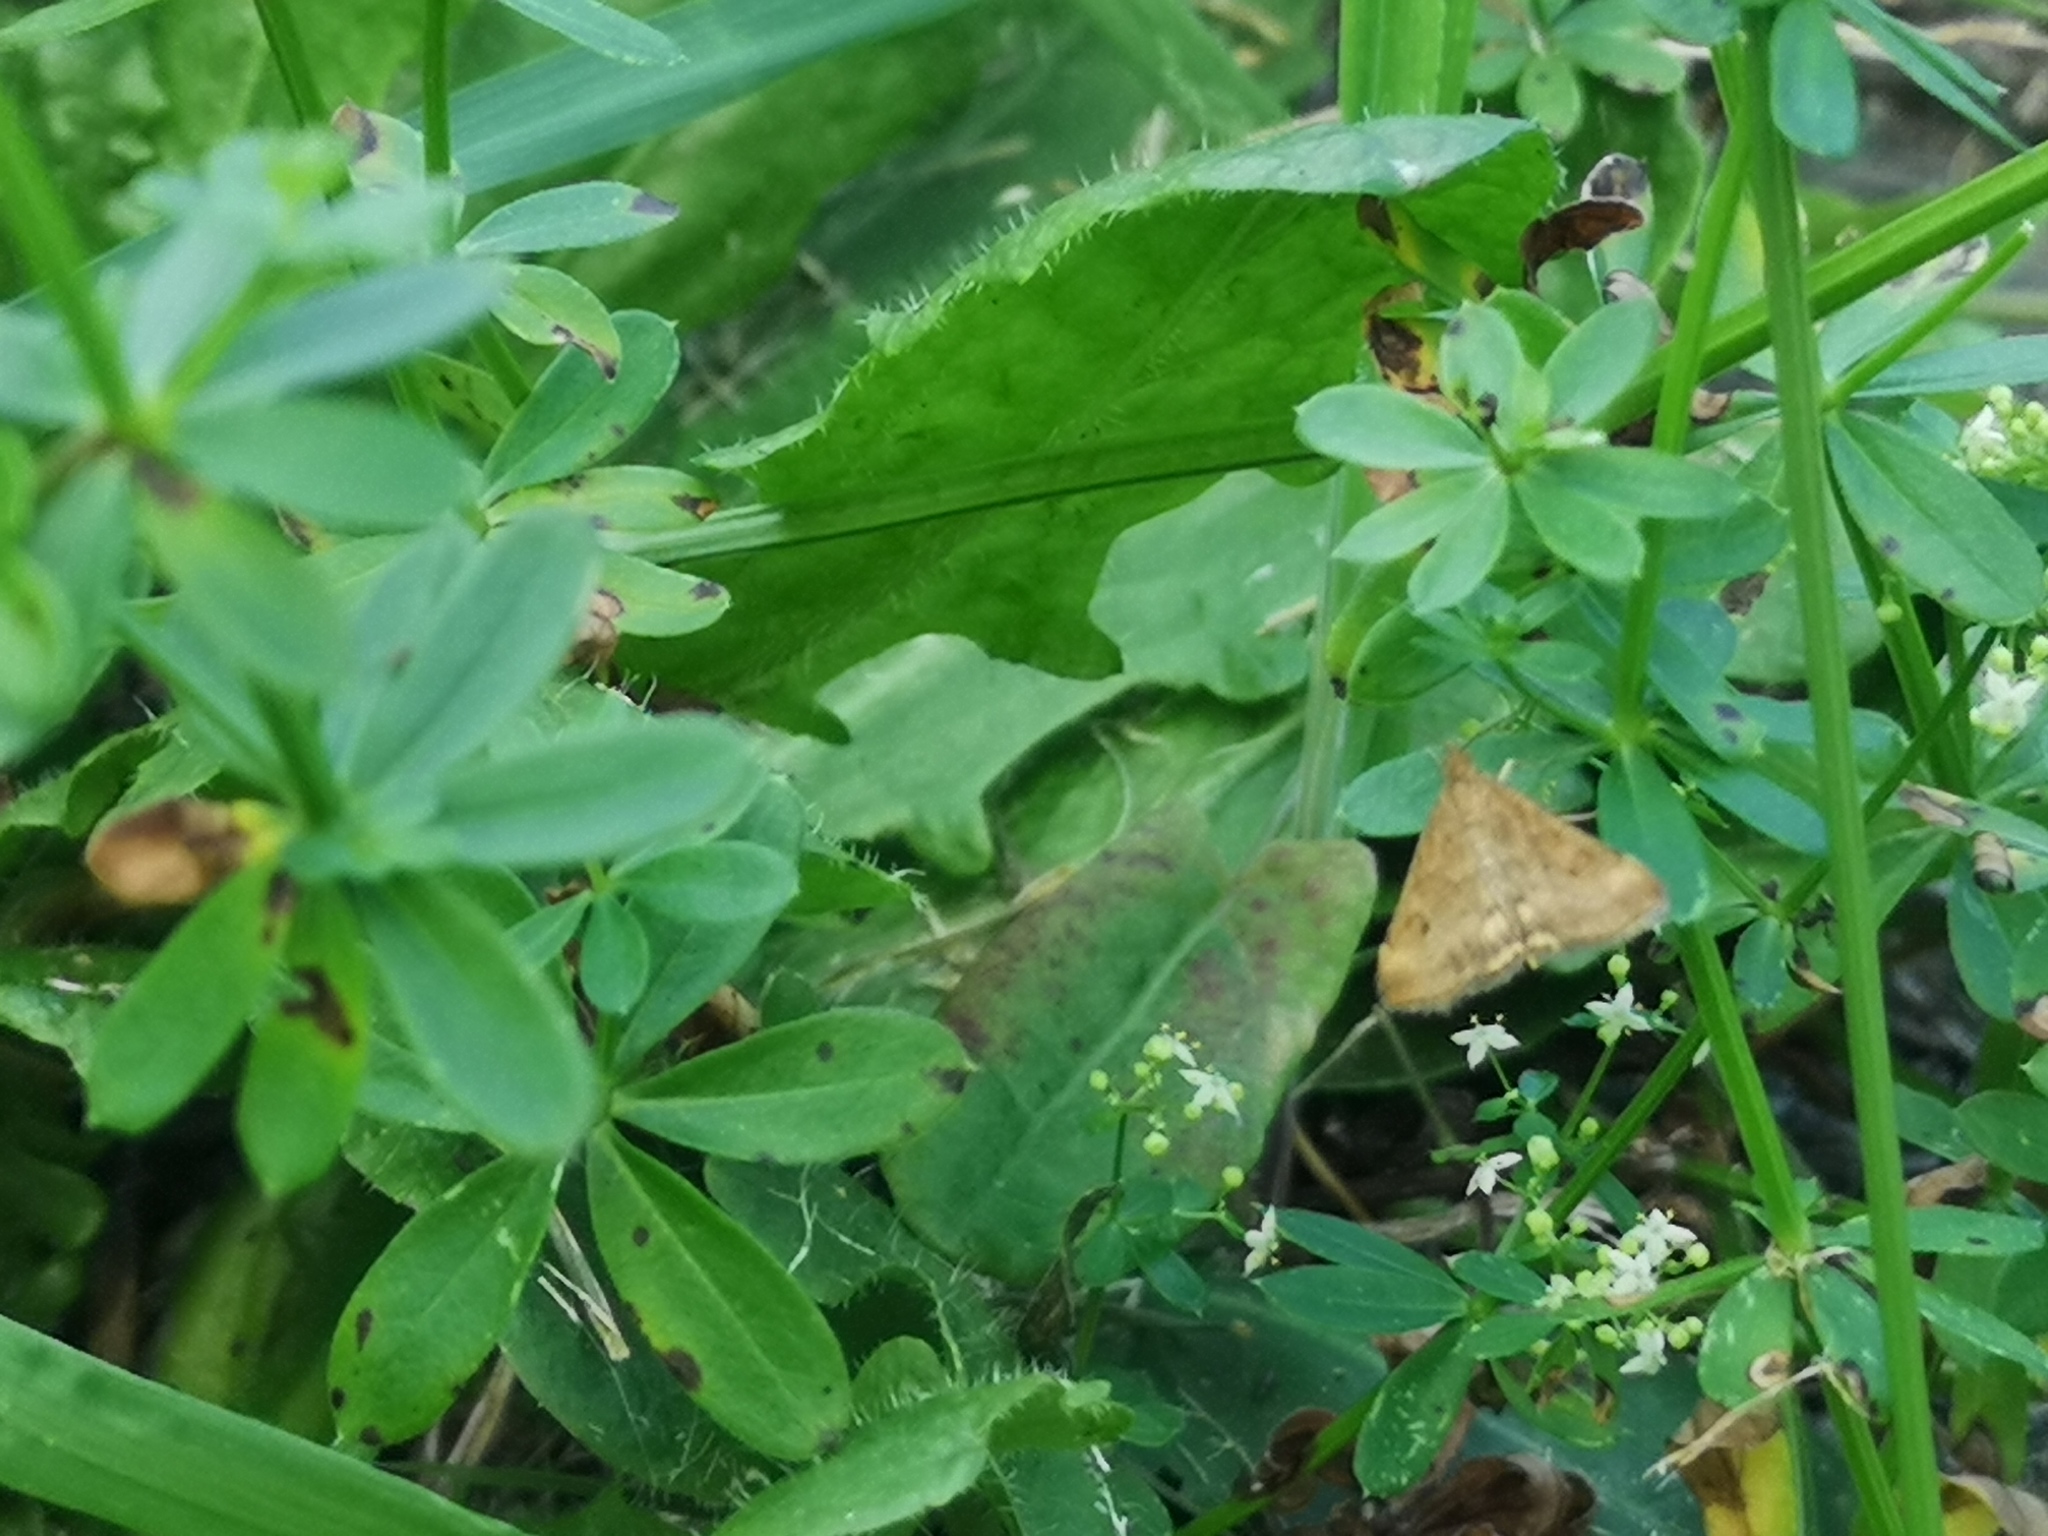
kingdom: Animalia
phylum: Arthropoda
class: Insecta
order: Lepidoptera
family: Crambidae
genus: Pyrausta
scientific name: Pyrausta despicata
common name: Straw-barred pearl
